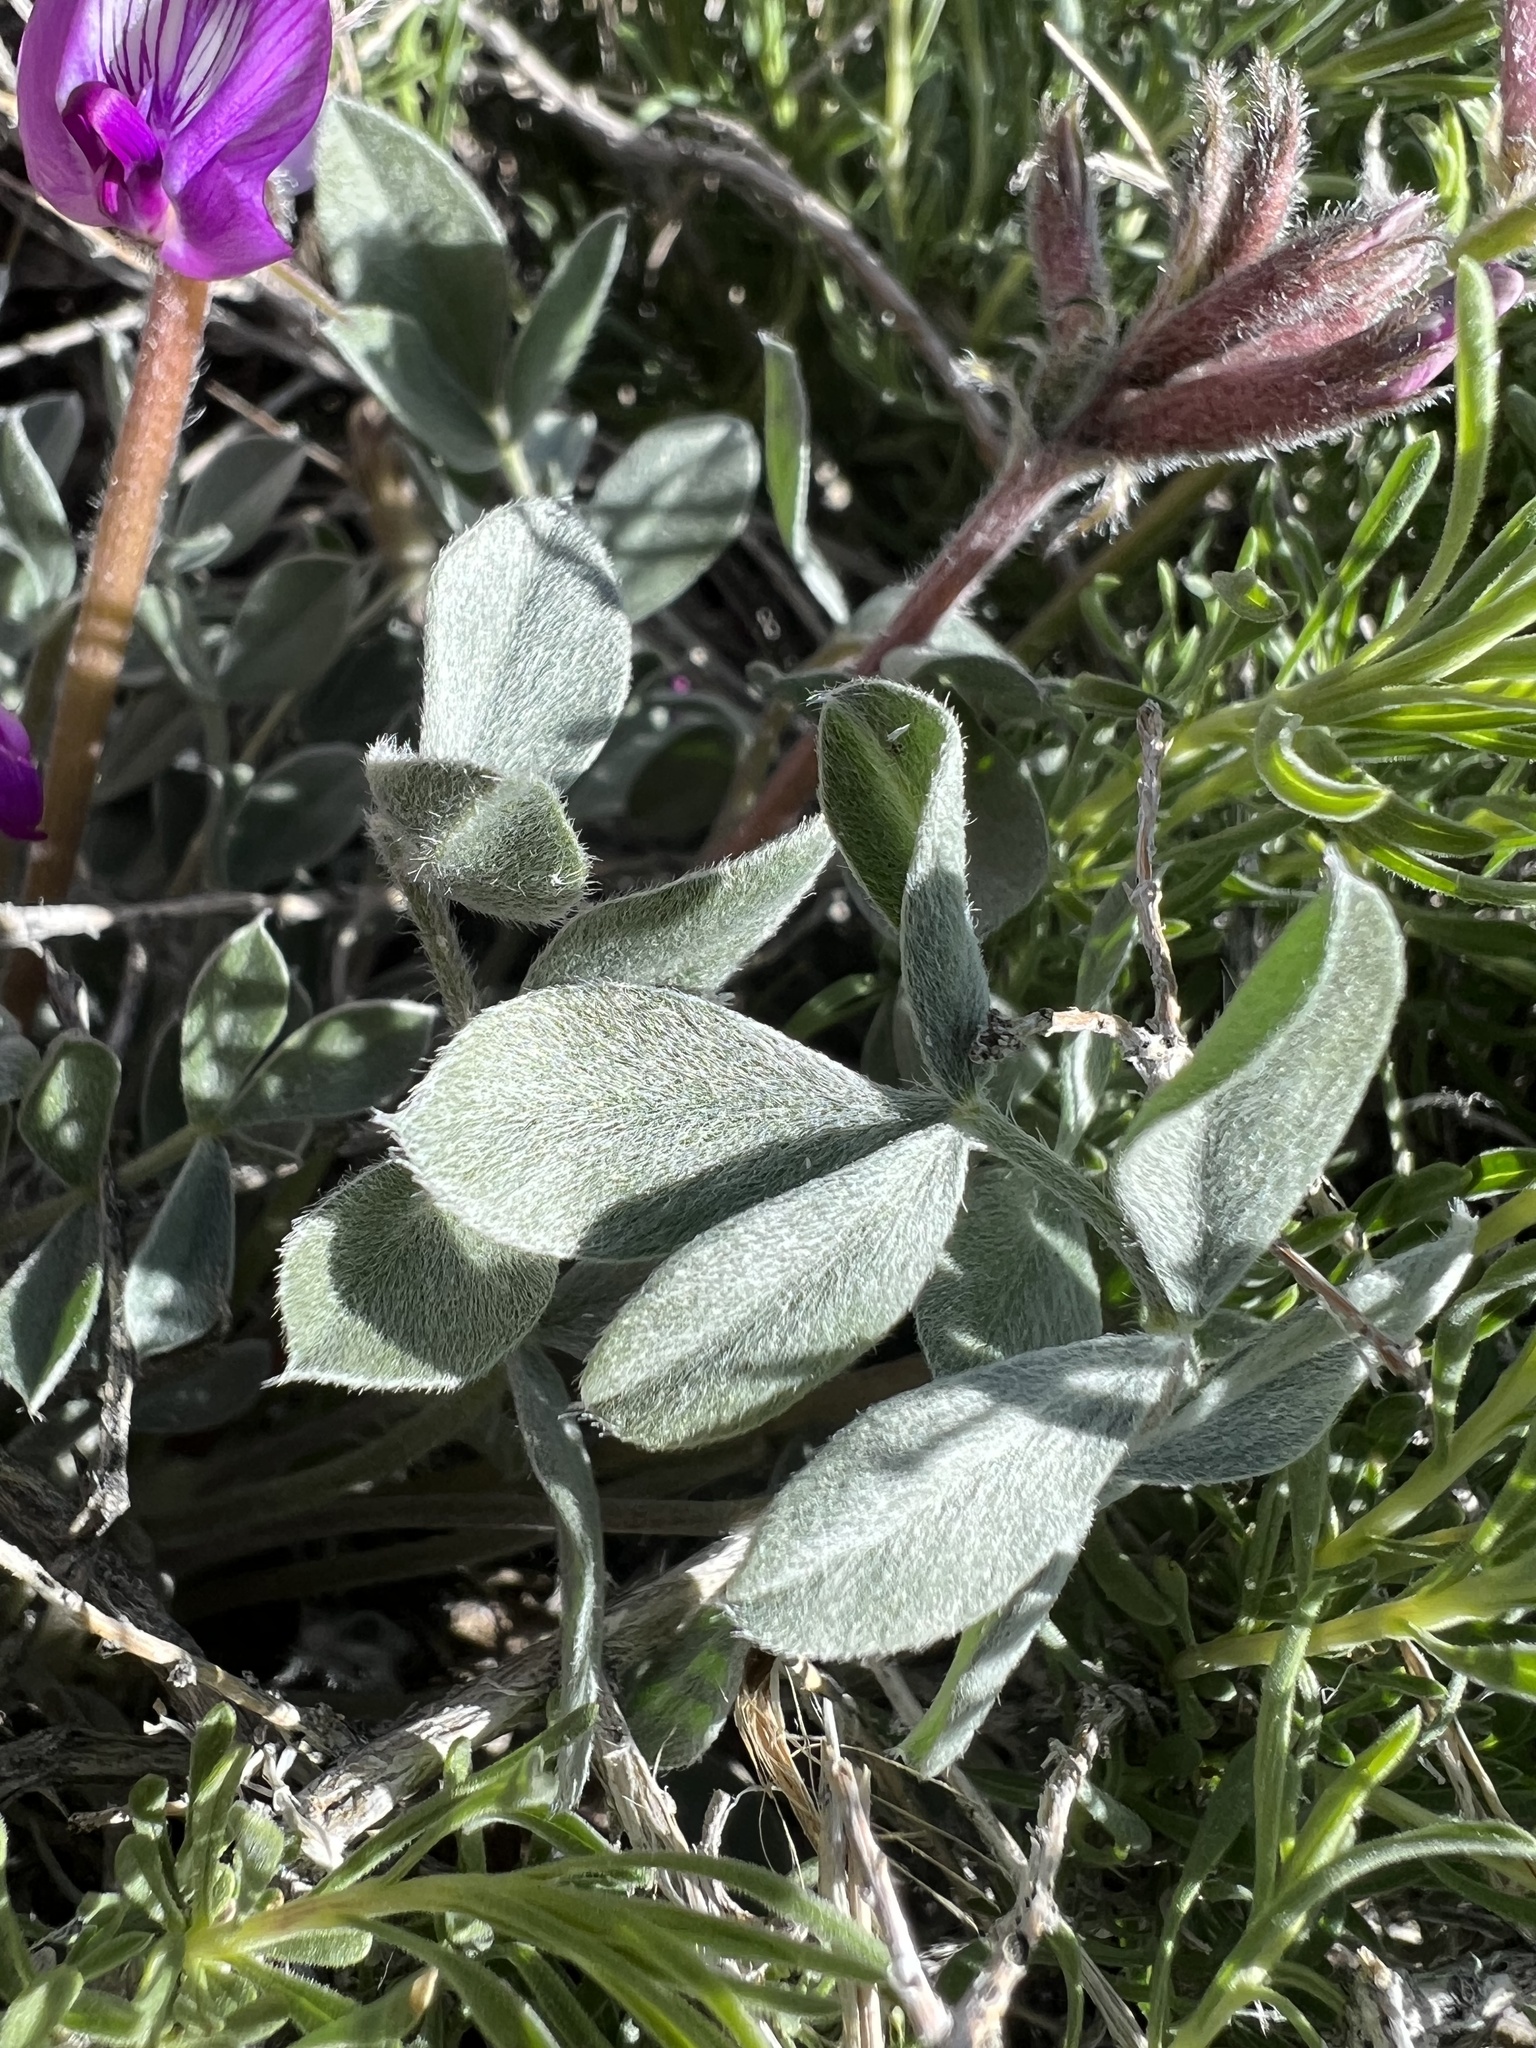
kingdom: Plantae
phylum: Tracheophyta
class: Magnoliopsida
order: Fabales
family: Fabaceae
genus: Astragalus
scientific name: Astragalus newberryi
